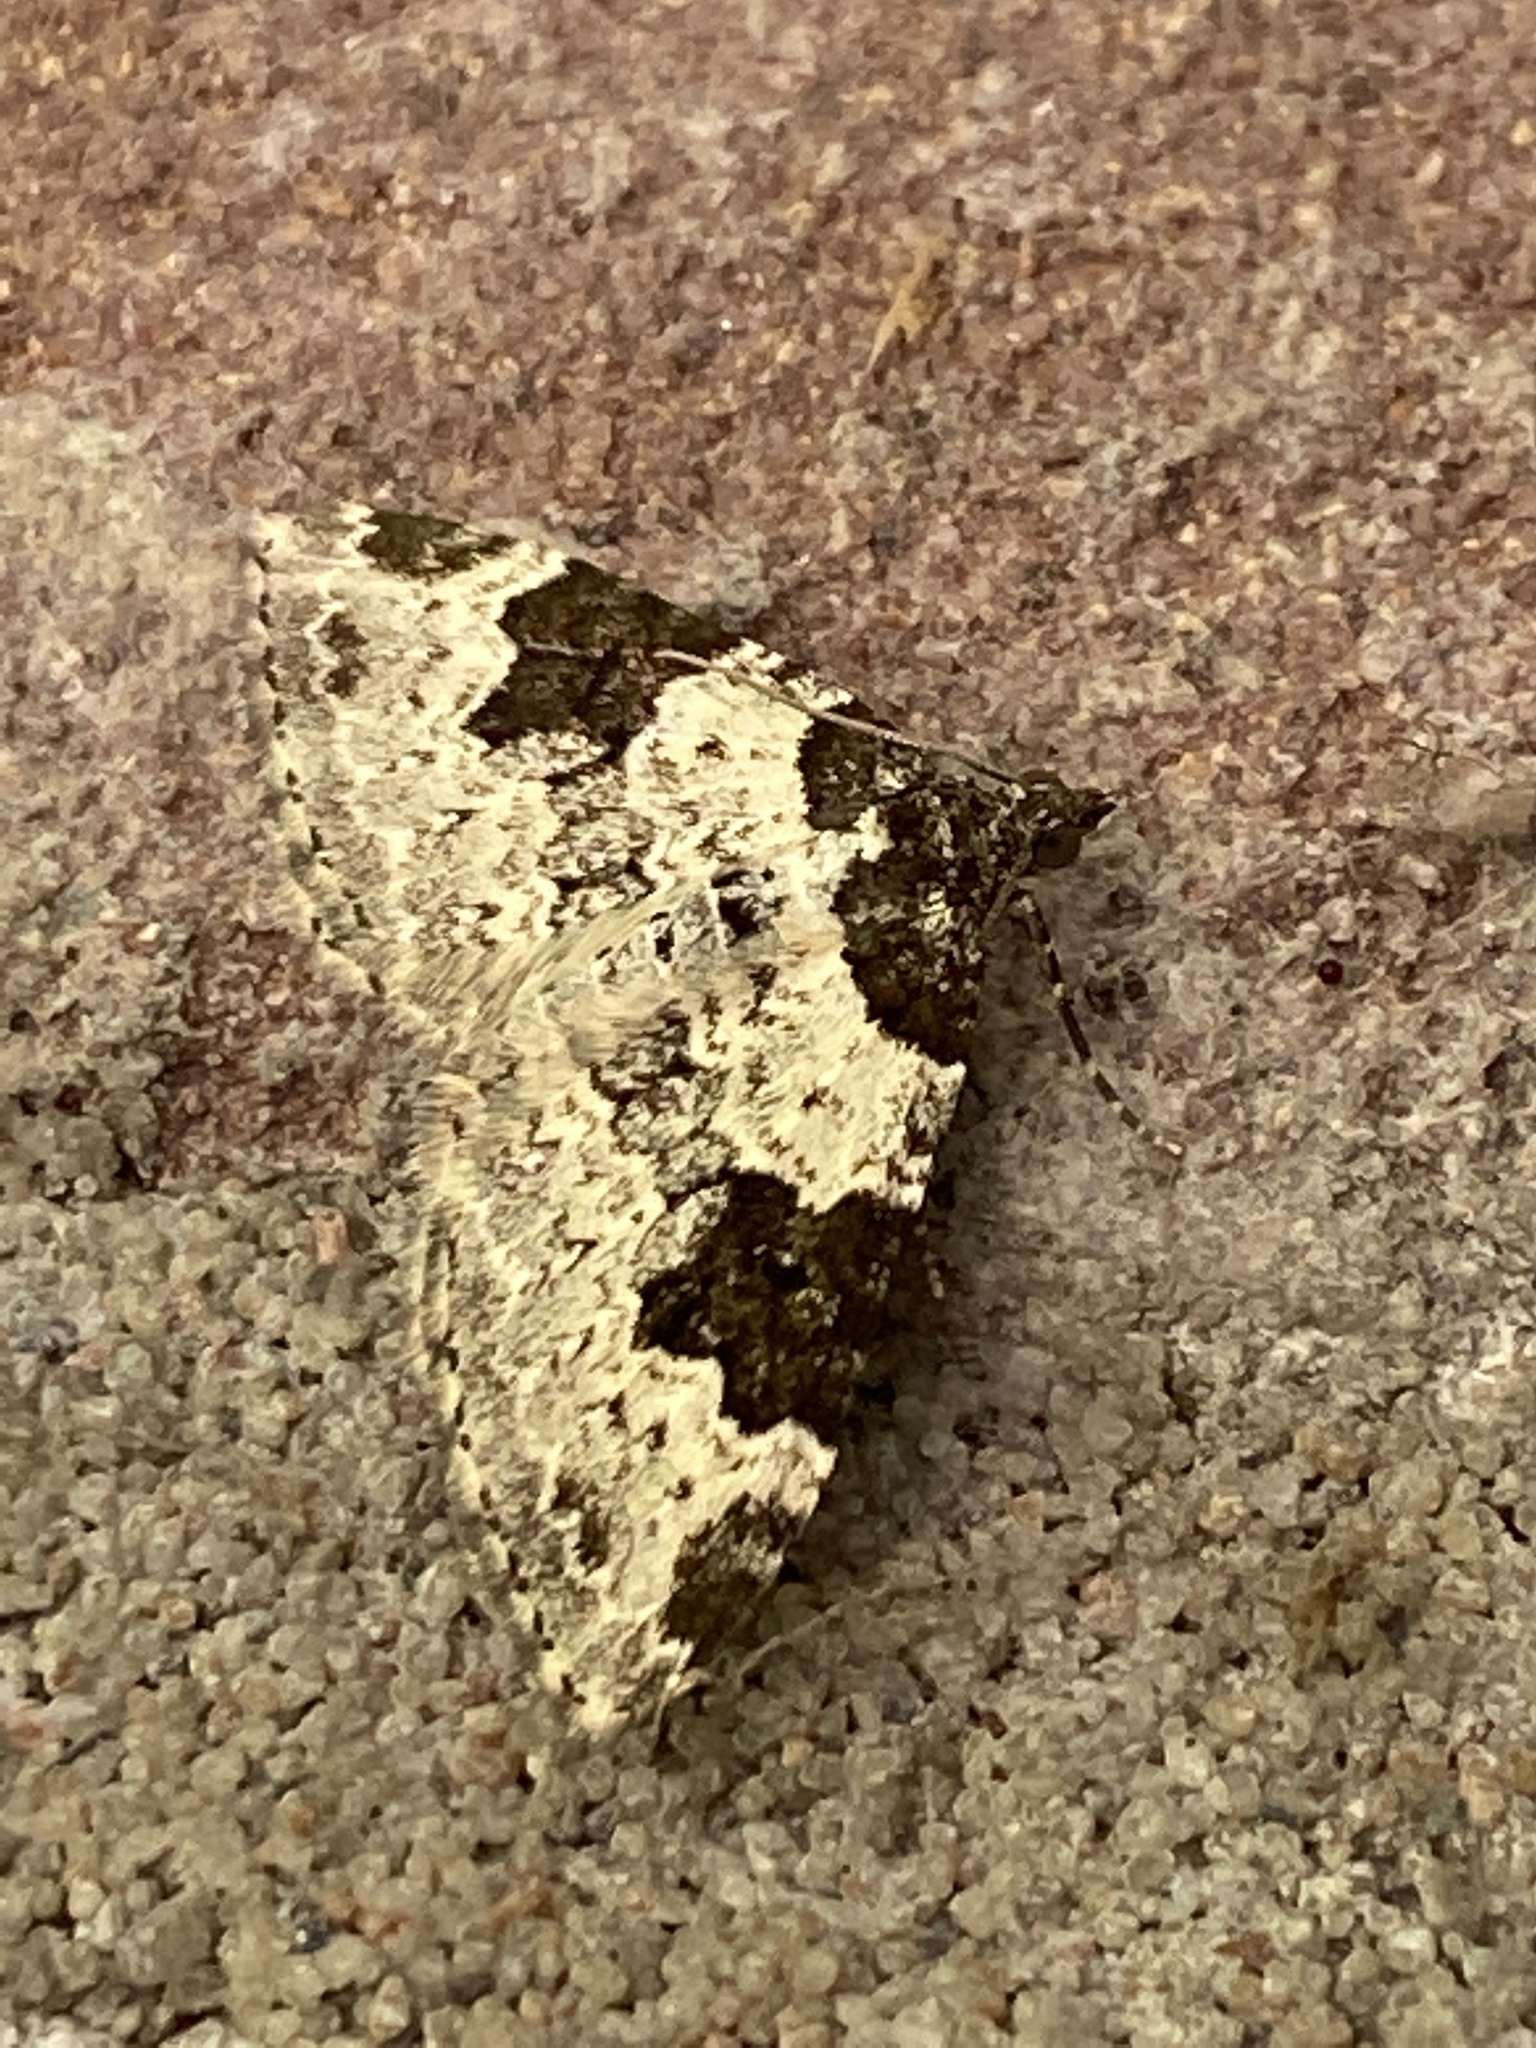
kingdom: Animalia
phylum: Arthropoda
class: Insecta
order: Lepidoptera
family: Geometridae
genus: Xanthorhoe
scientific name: Xanthorhoe fluctuata
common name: Garden carpet
